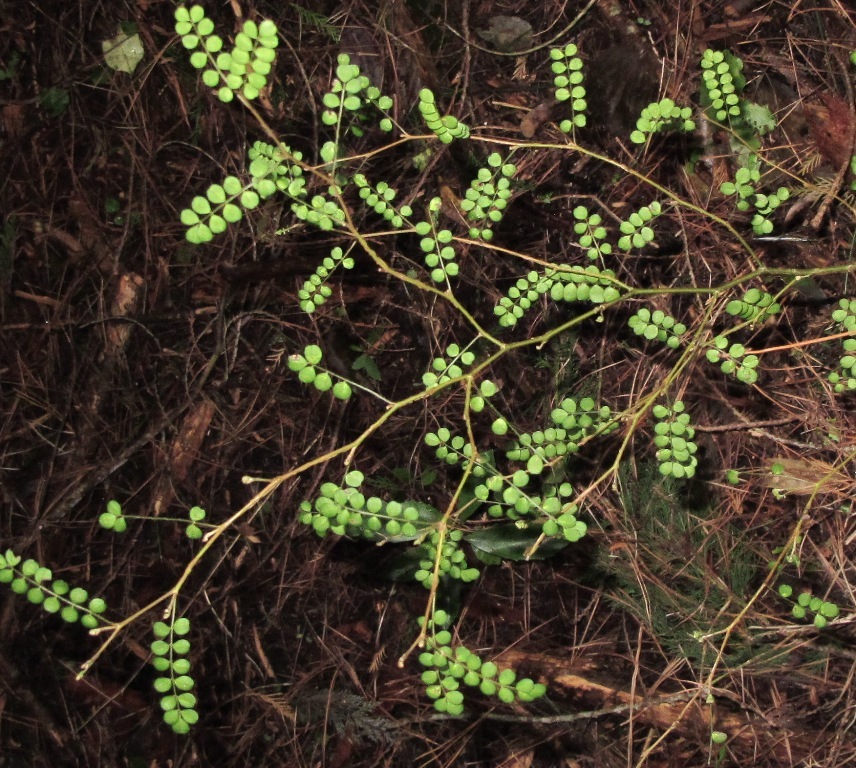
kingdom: Plantae
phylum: Tracheophyta
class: Magnoliopsida
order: Fabales
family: Fabaceae
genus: Sophora
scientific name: Sophora microphylla
